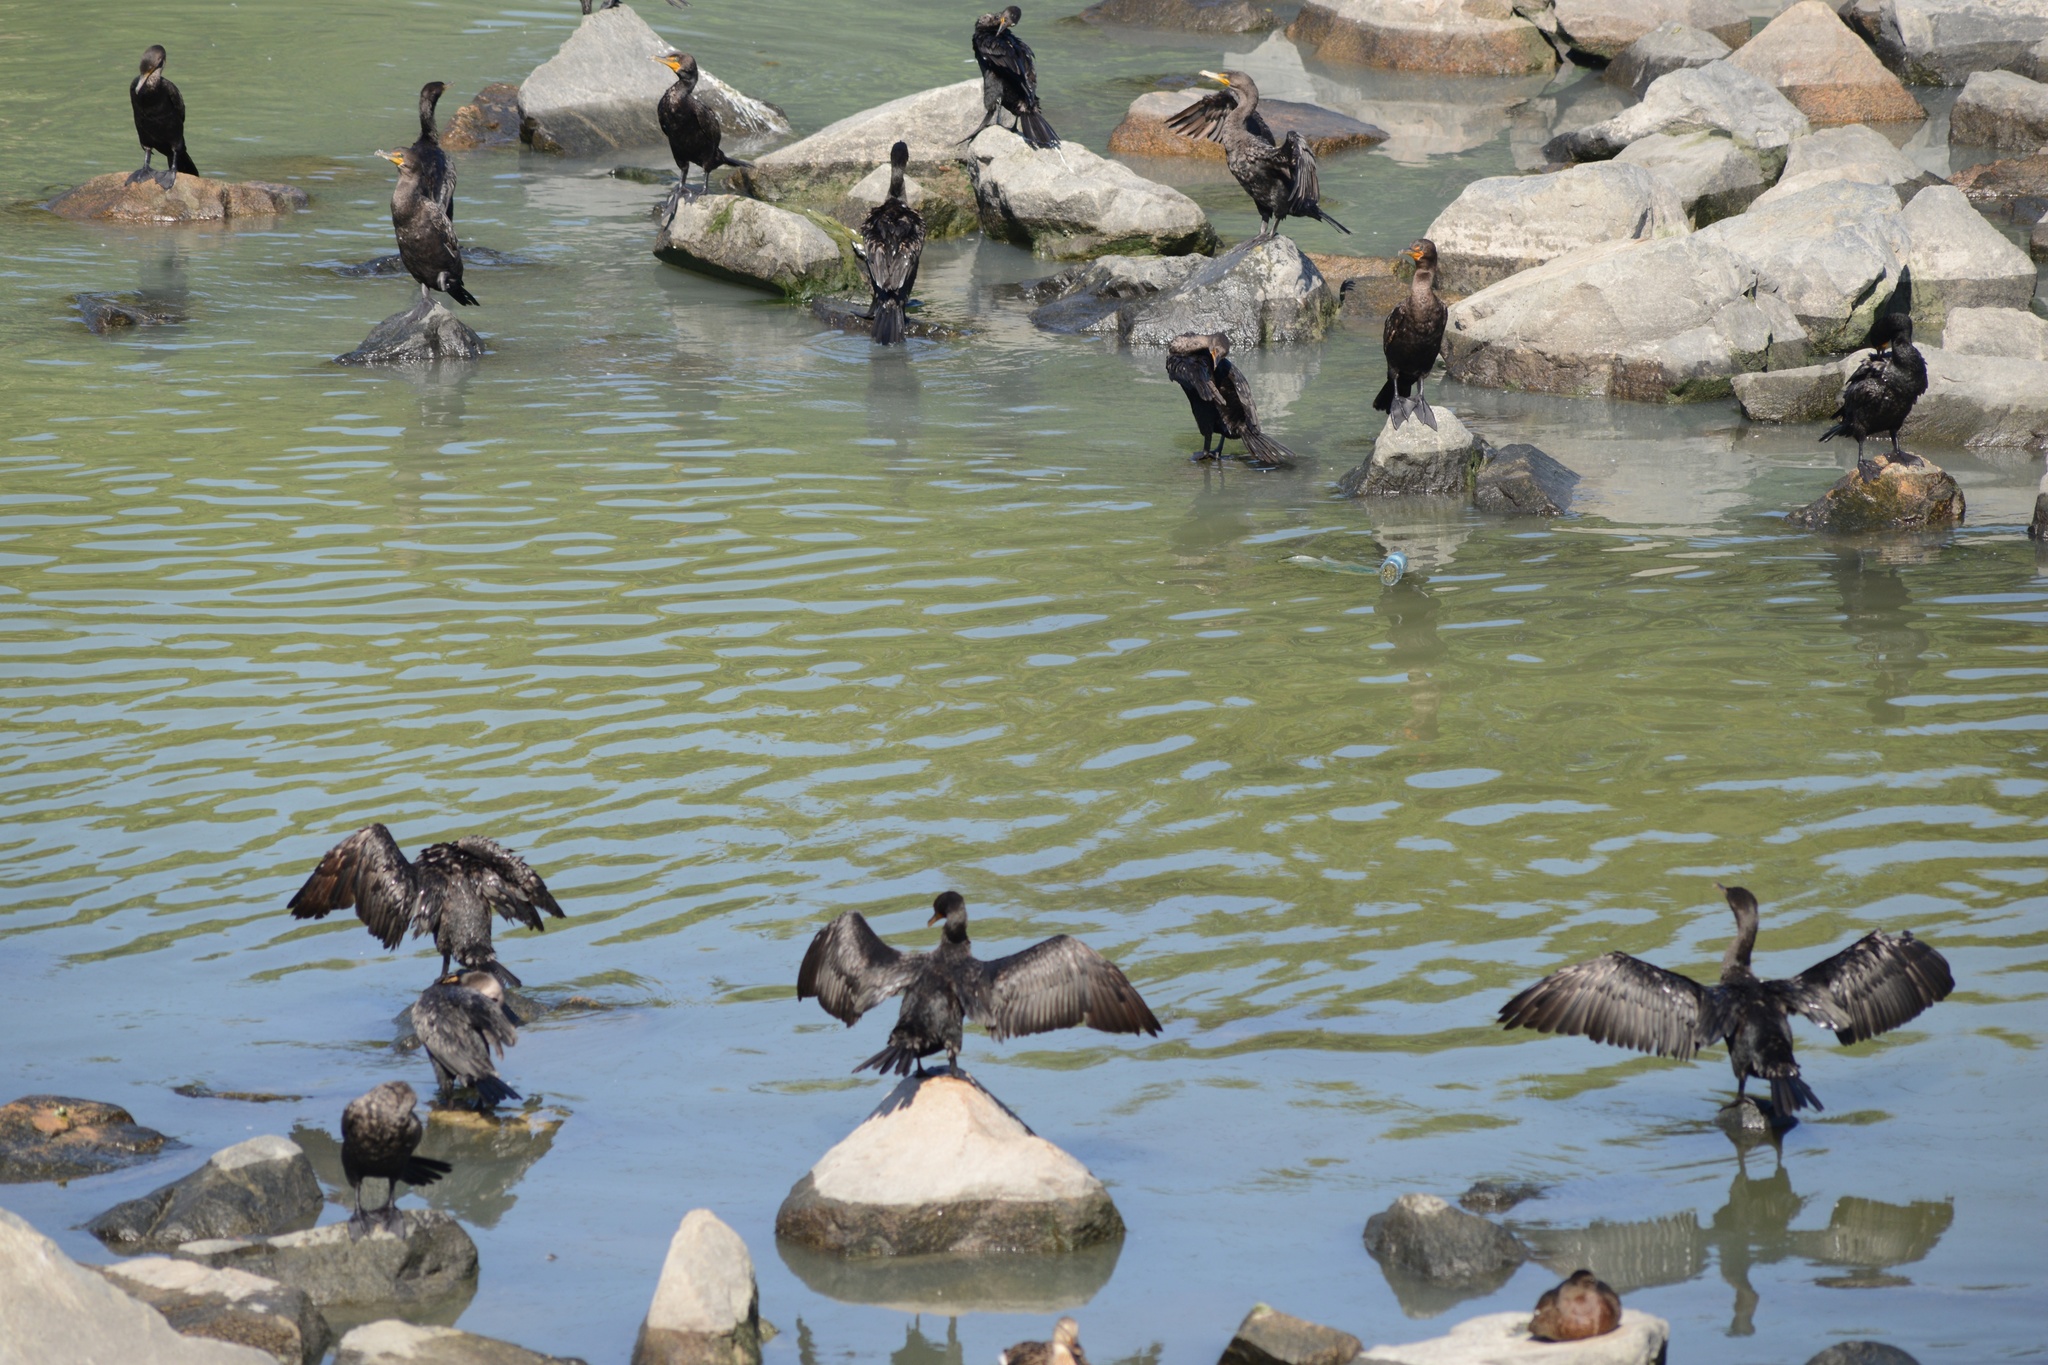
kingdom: Animalia
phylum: Chordata
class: Aves
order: Suliformes
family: Phalacrocoracidae
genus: Phalacrocorax
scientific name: Phalacrocorax auritus
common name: Double-crested cormorant
